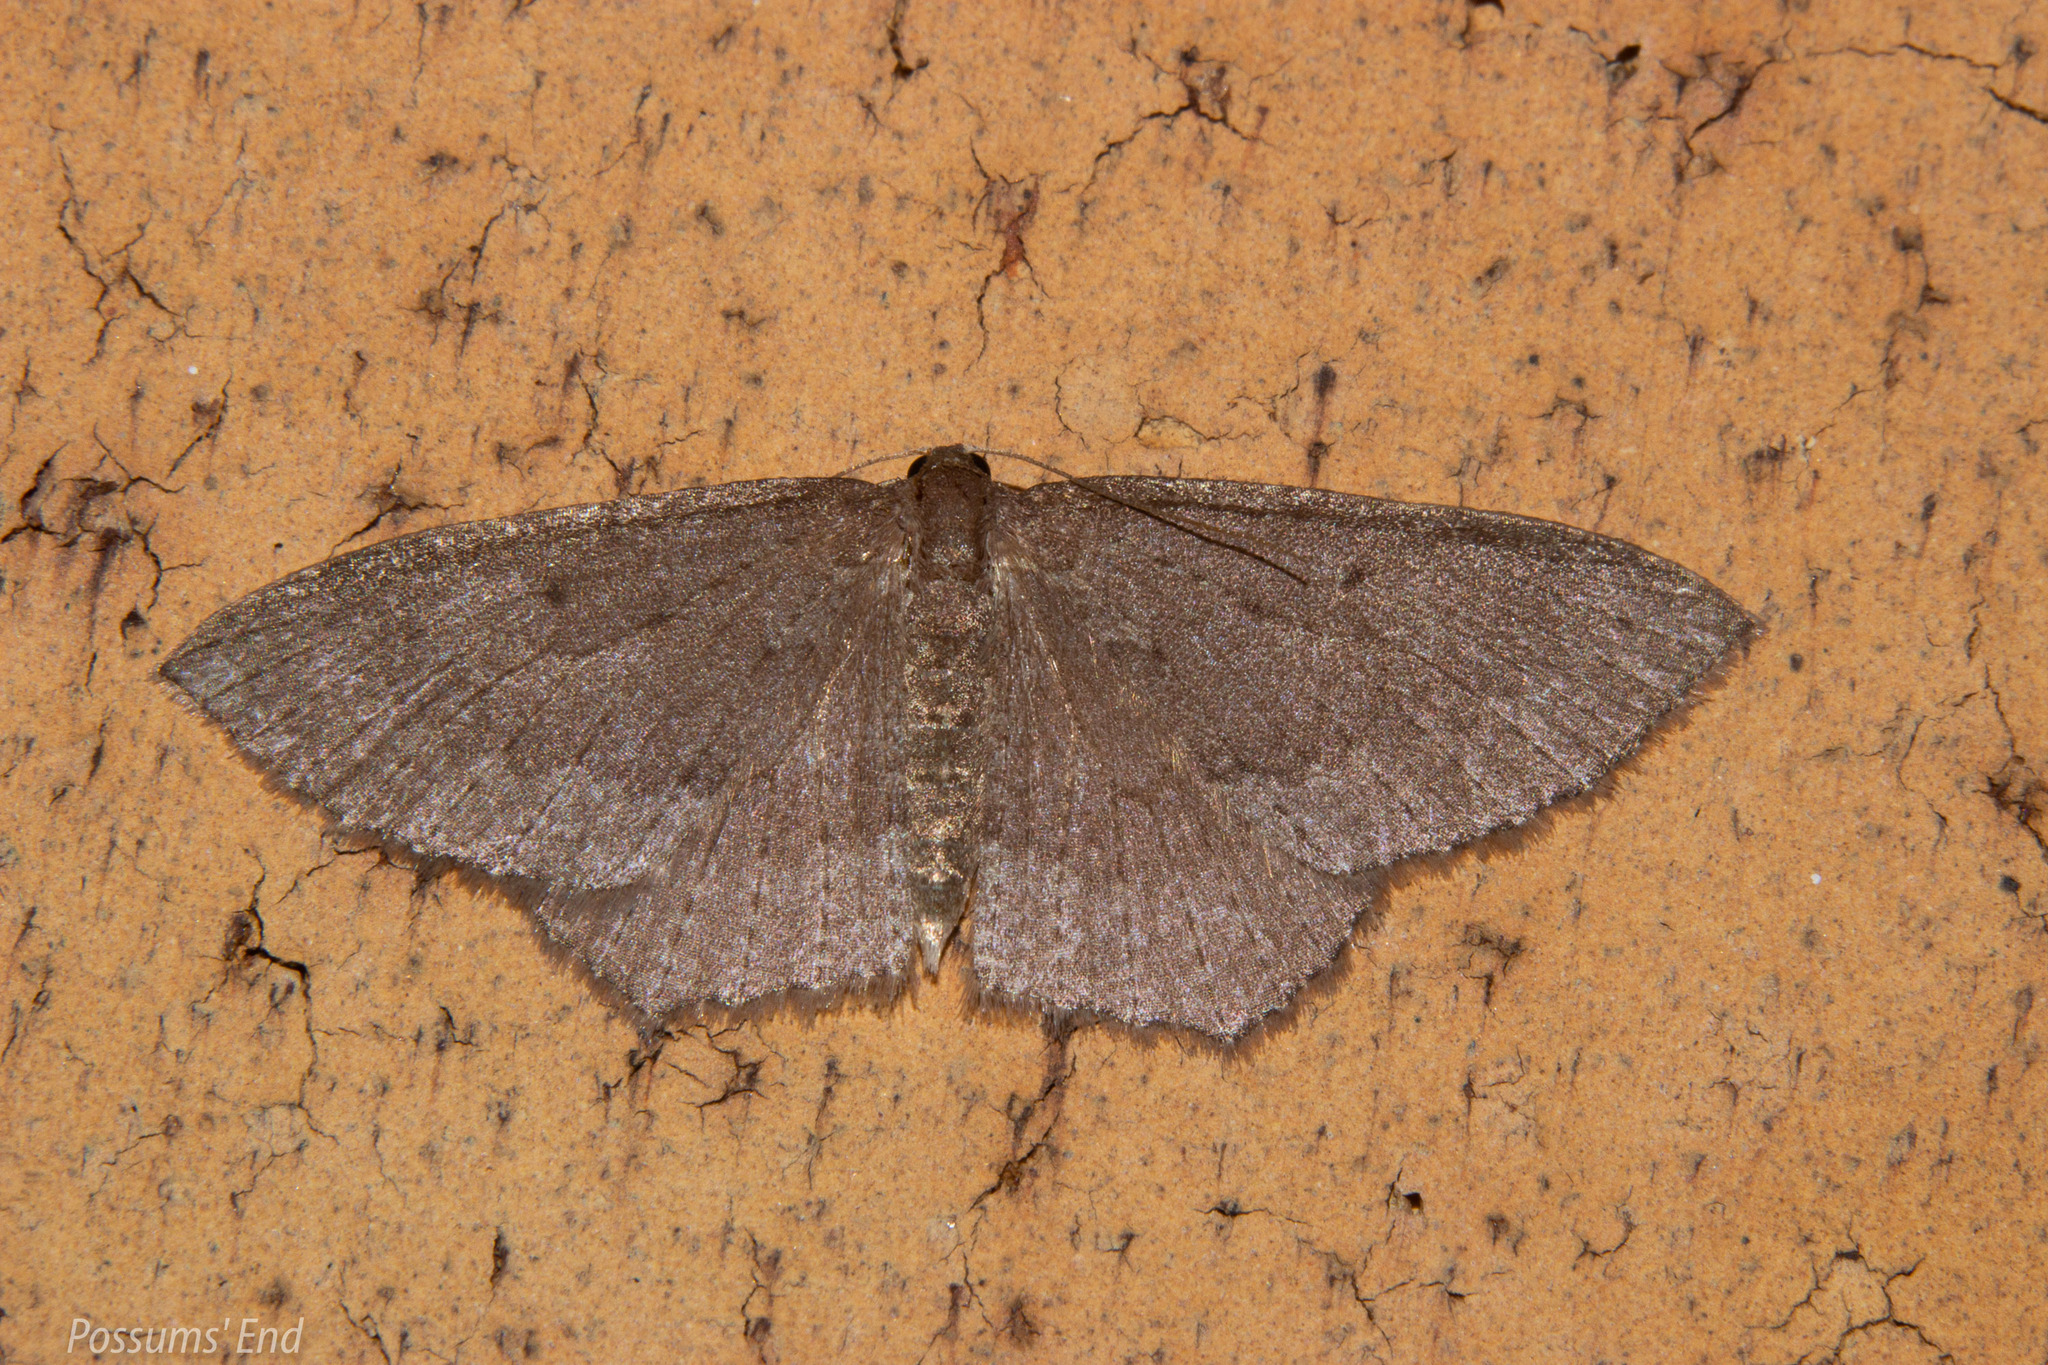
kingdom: Animalia
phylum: Arthropoda
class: Insecta
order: Lepidoptera
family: Geometridae
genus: Poecilasthena
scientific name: Poecilasthena subpurpureata
